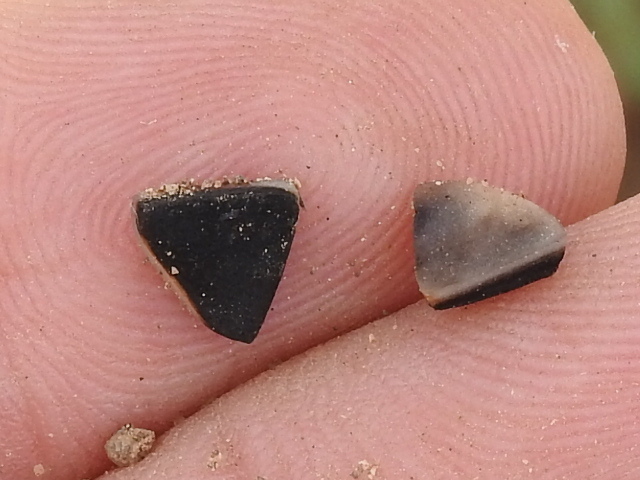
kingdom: Plantae
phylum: Tracheophyta
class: Magnoliopsida
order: Piperales
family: Aristolochiaceae
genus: Aristolochia
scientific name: Aristolochia erecta
